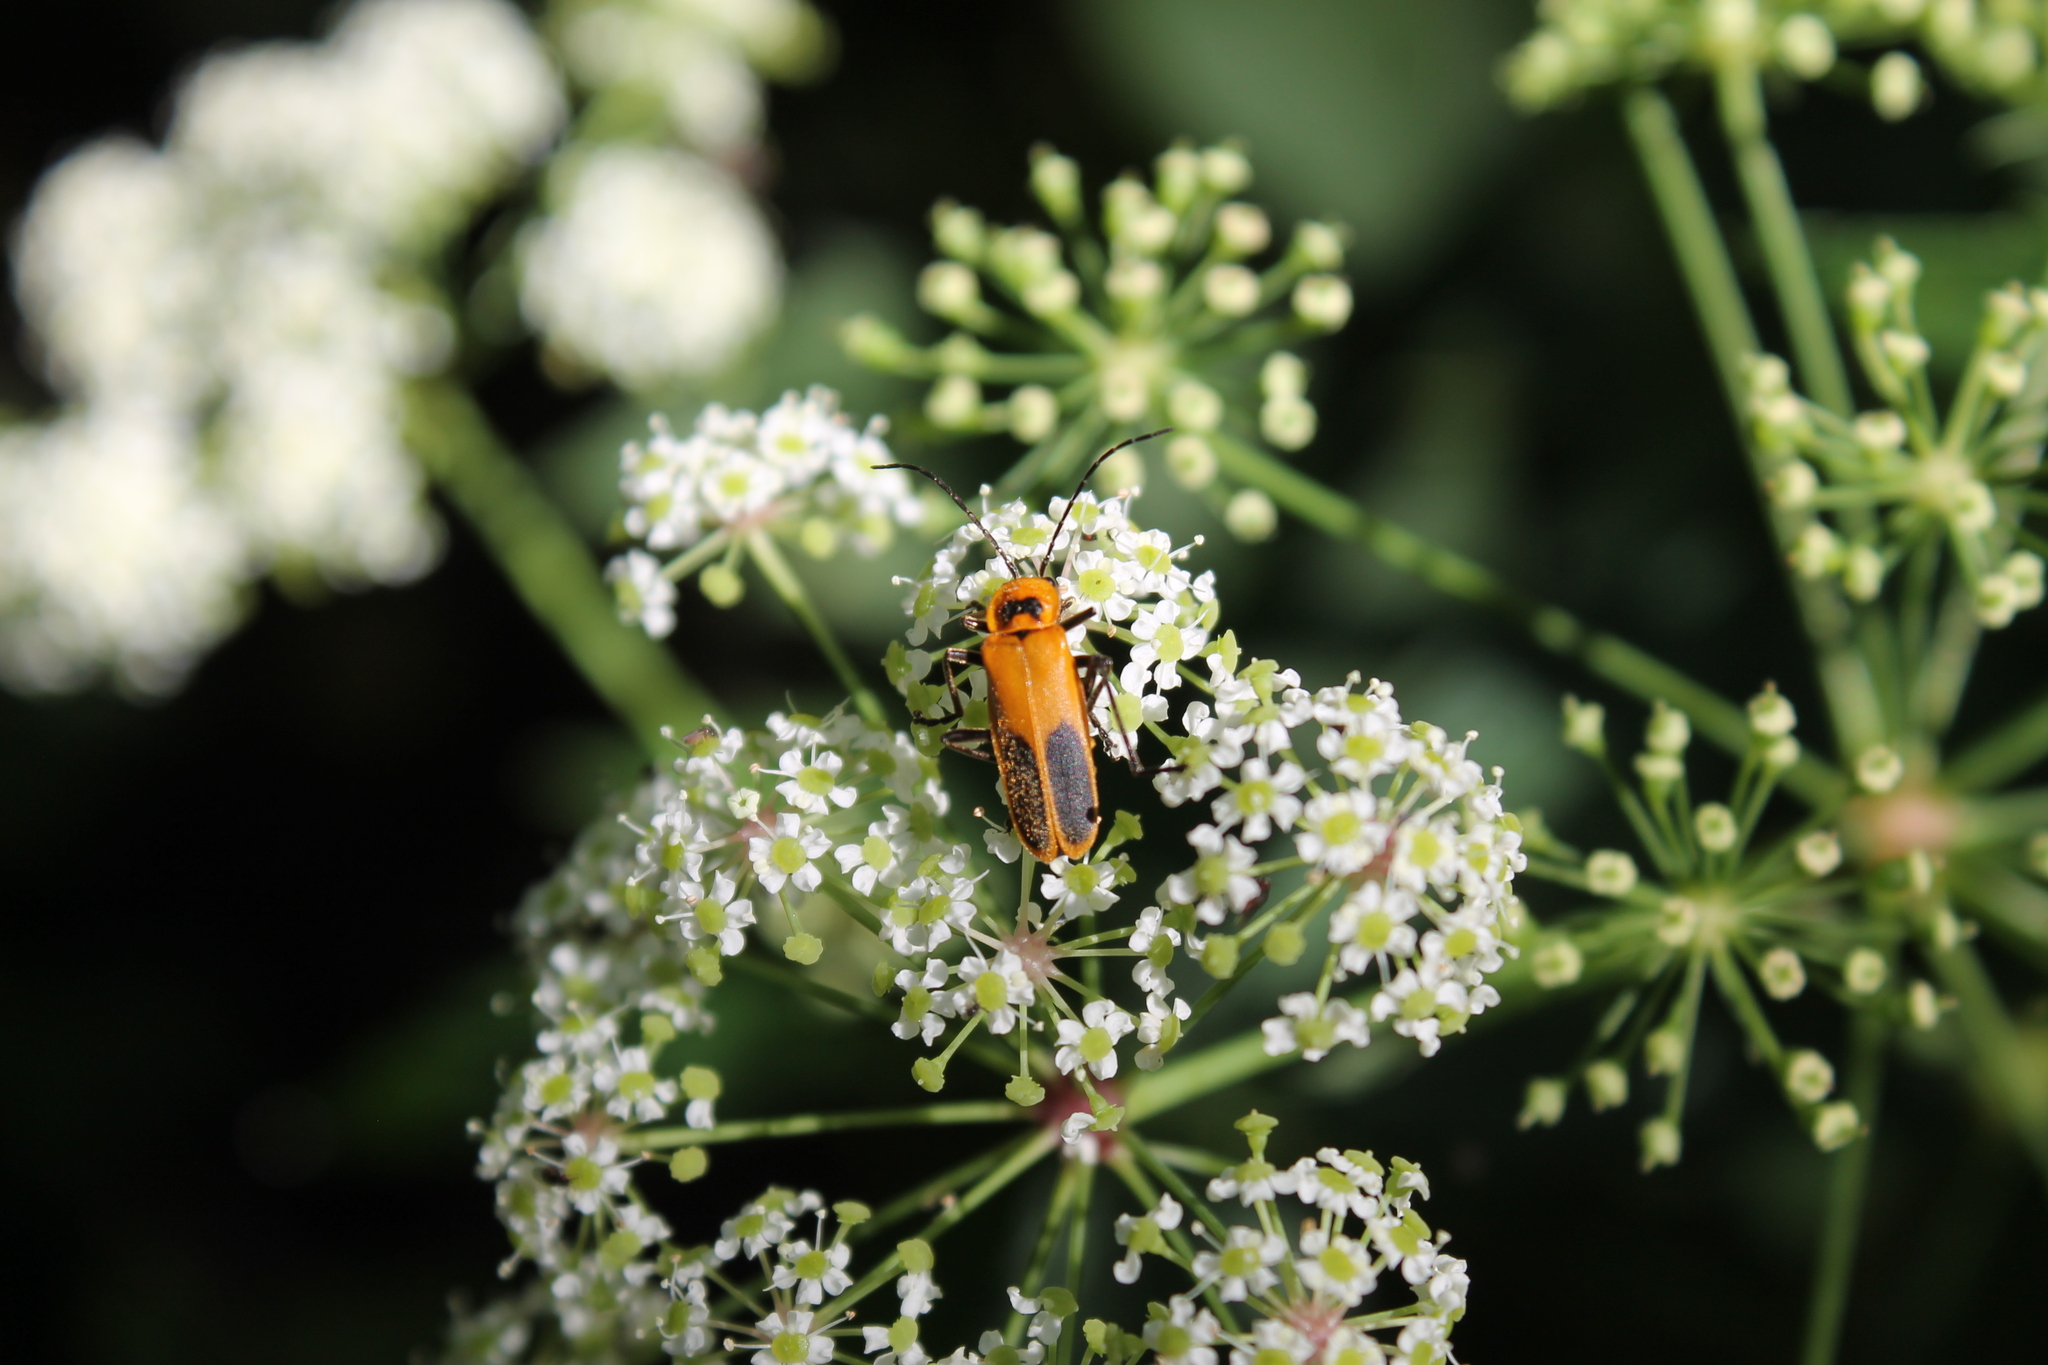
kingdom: Animalia
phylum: Arthropoda
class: Insecta
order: Coleoptera
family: Cantharidae
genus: Chauliognathus
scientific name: Chauliognathus pensylvanicus
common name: Goldenrod soldier beetle
